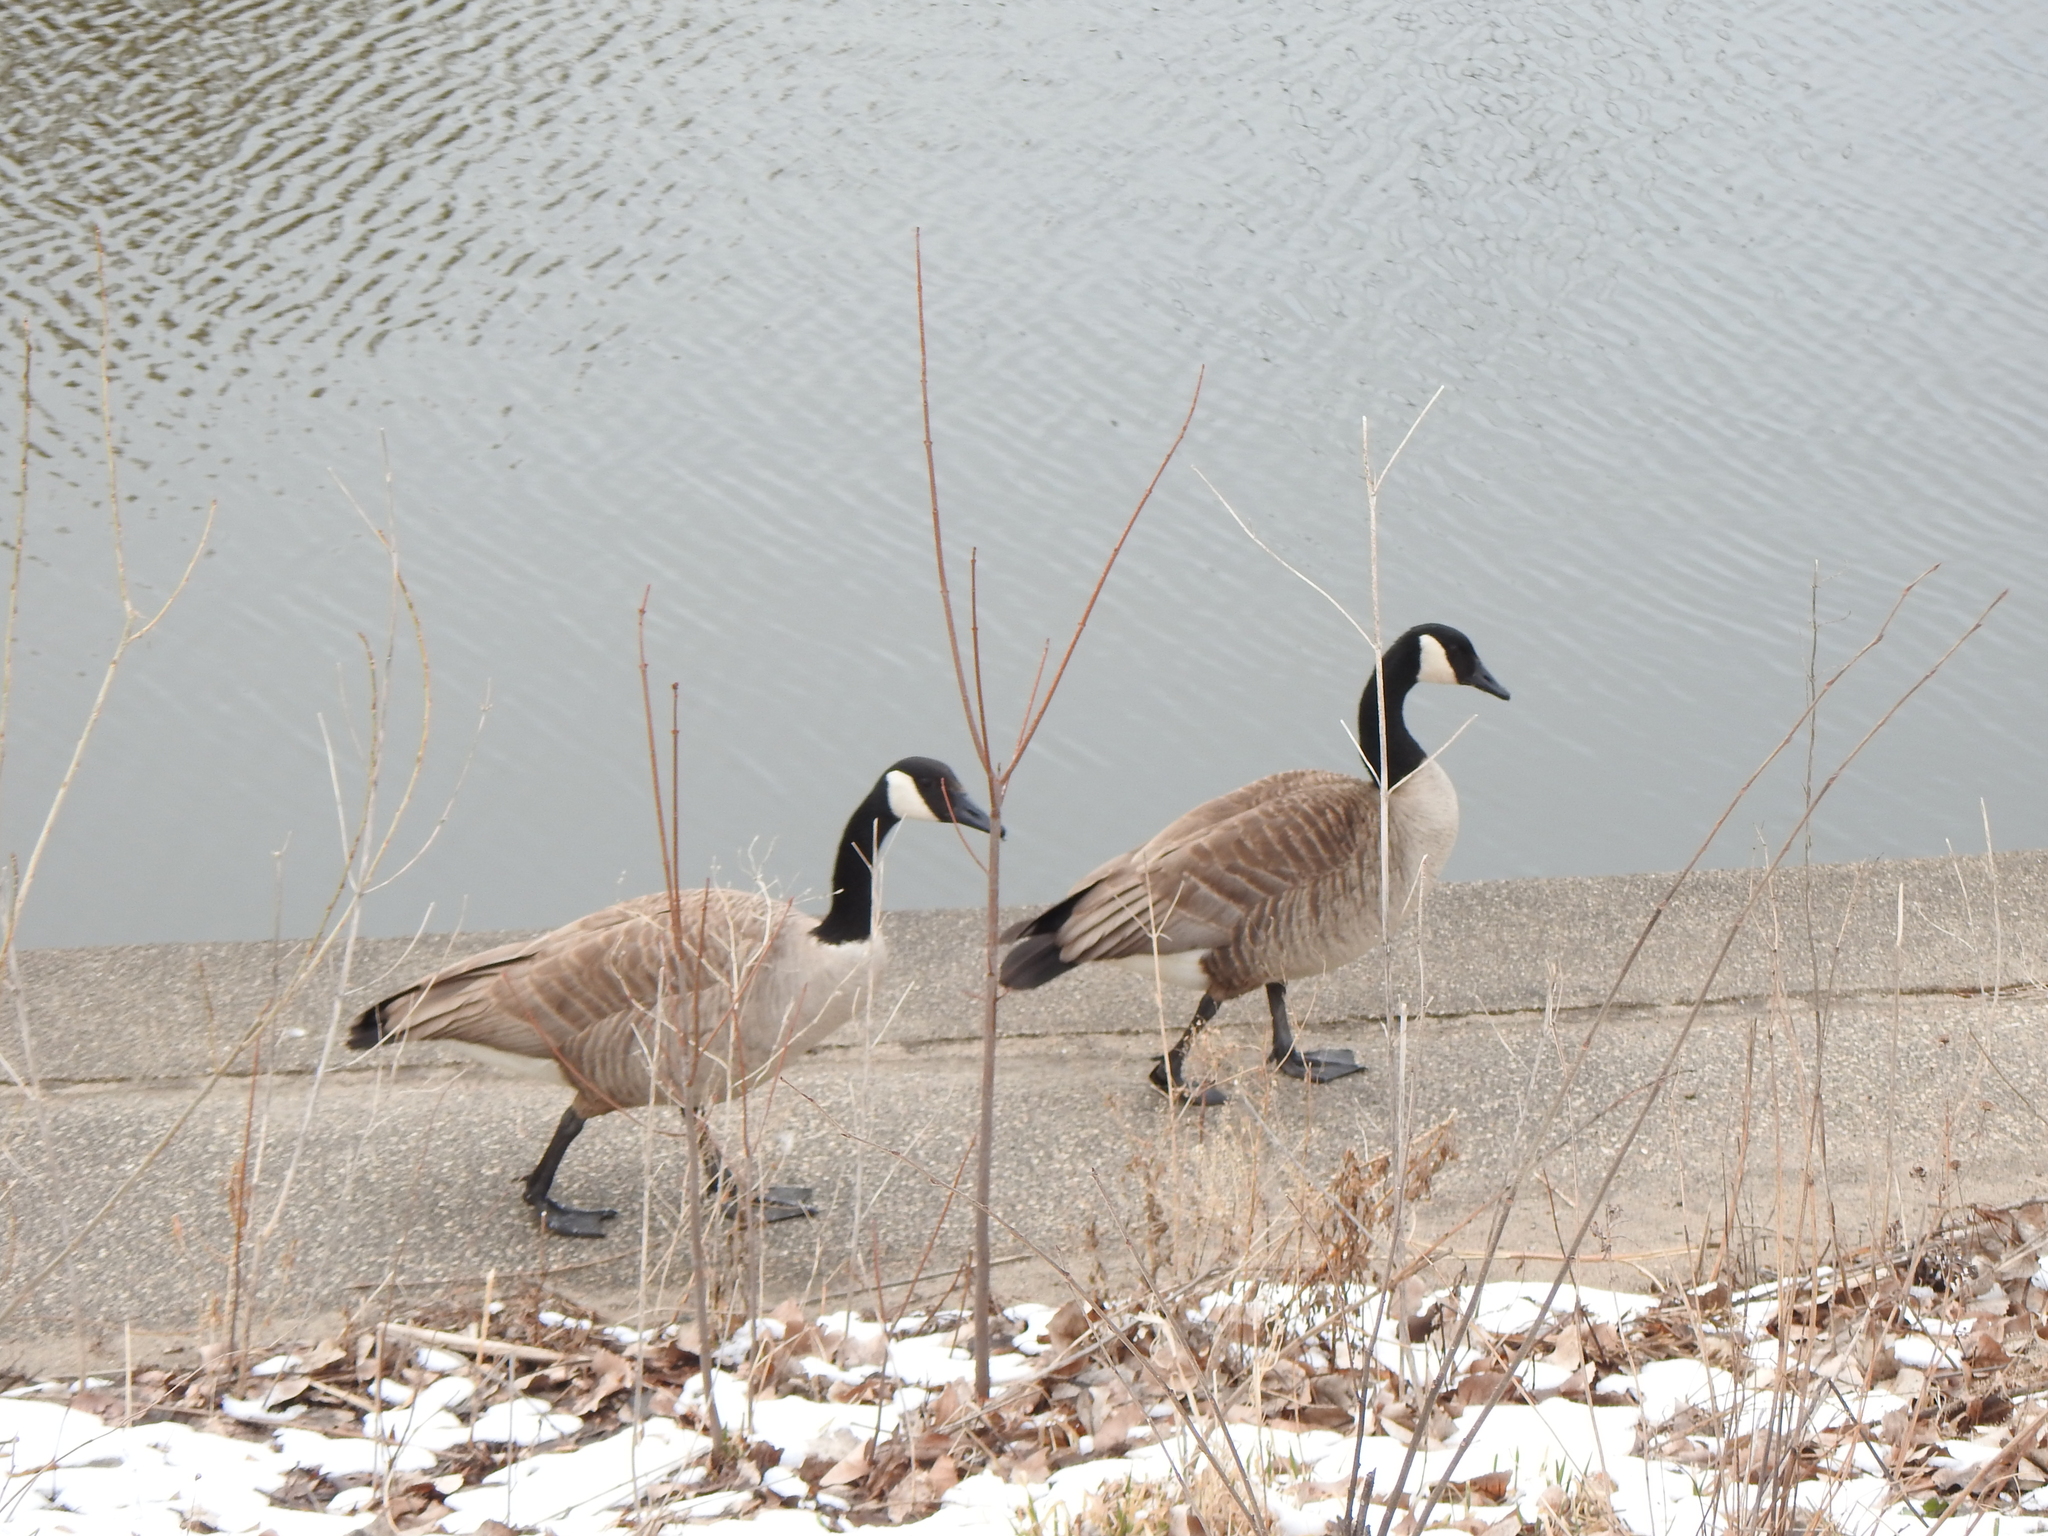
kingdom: Animalia
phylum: Chordata
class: Aves
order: Anseriformes
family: Anatidae
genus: Branta
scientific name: Branta canadensis
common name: Canada goose
